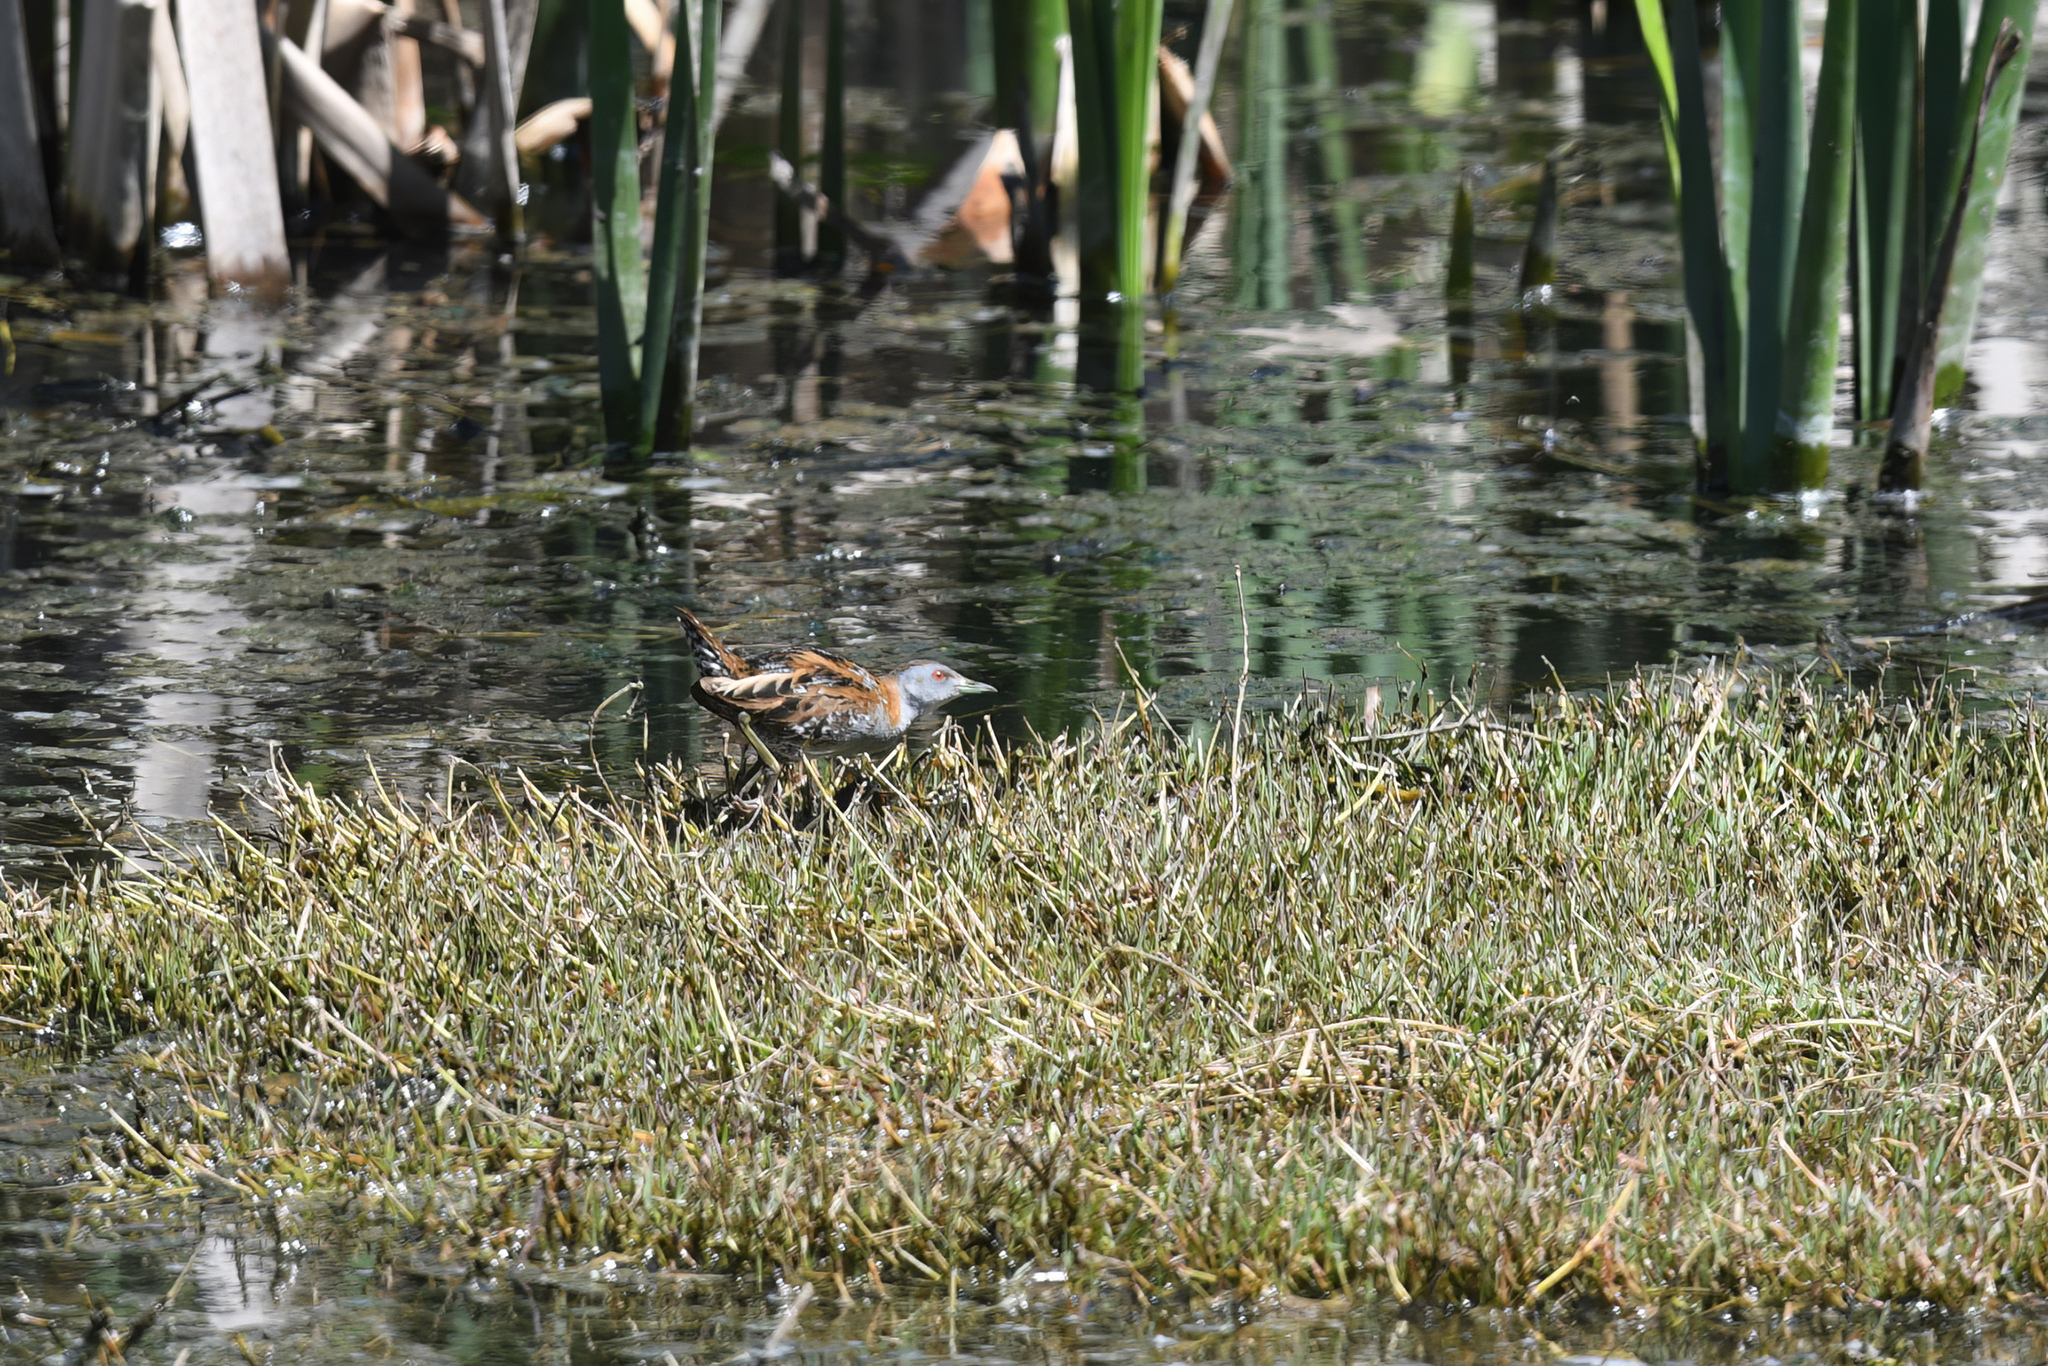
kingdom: Animalia
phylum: Chordata
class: Aves
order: Gruiformes
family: Rallidae
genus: Porzana
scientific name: Porzana pusilla
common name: Baillon's crake
